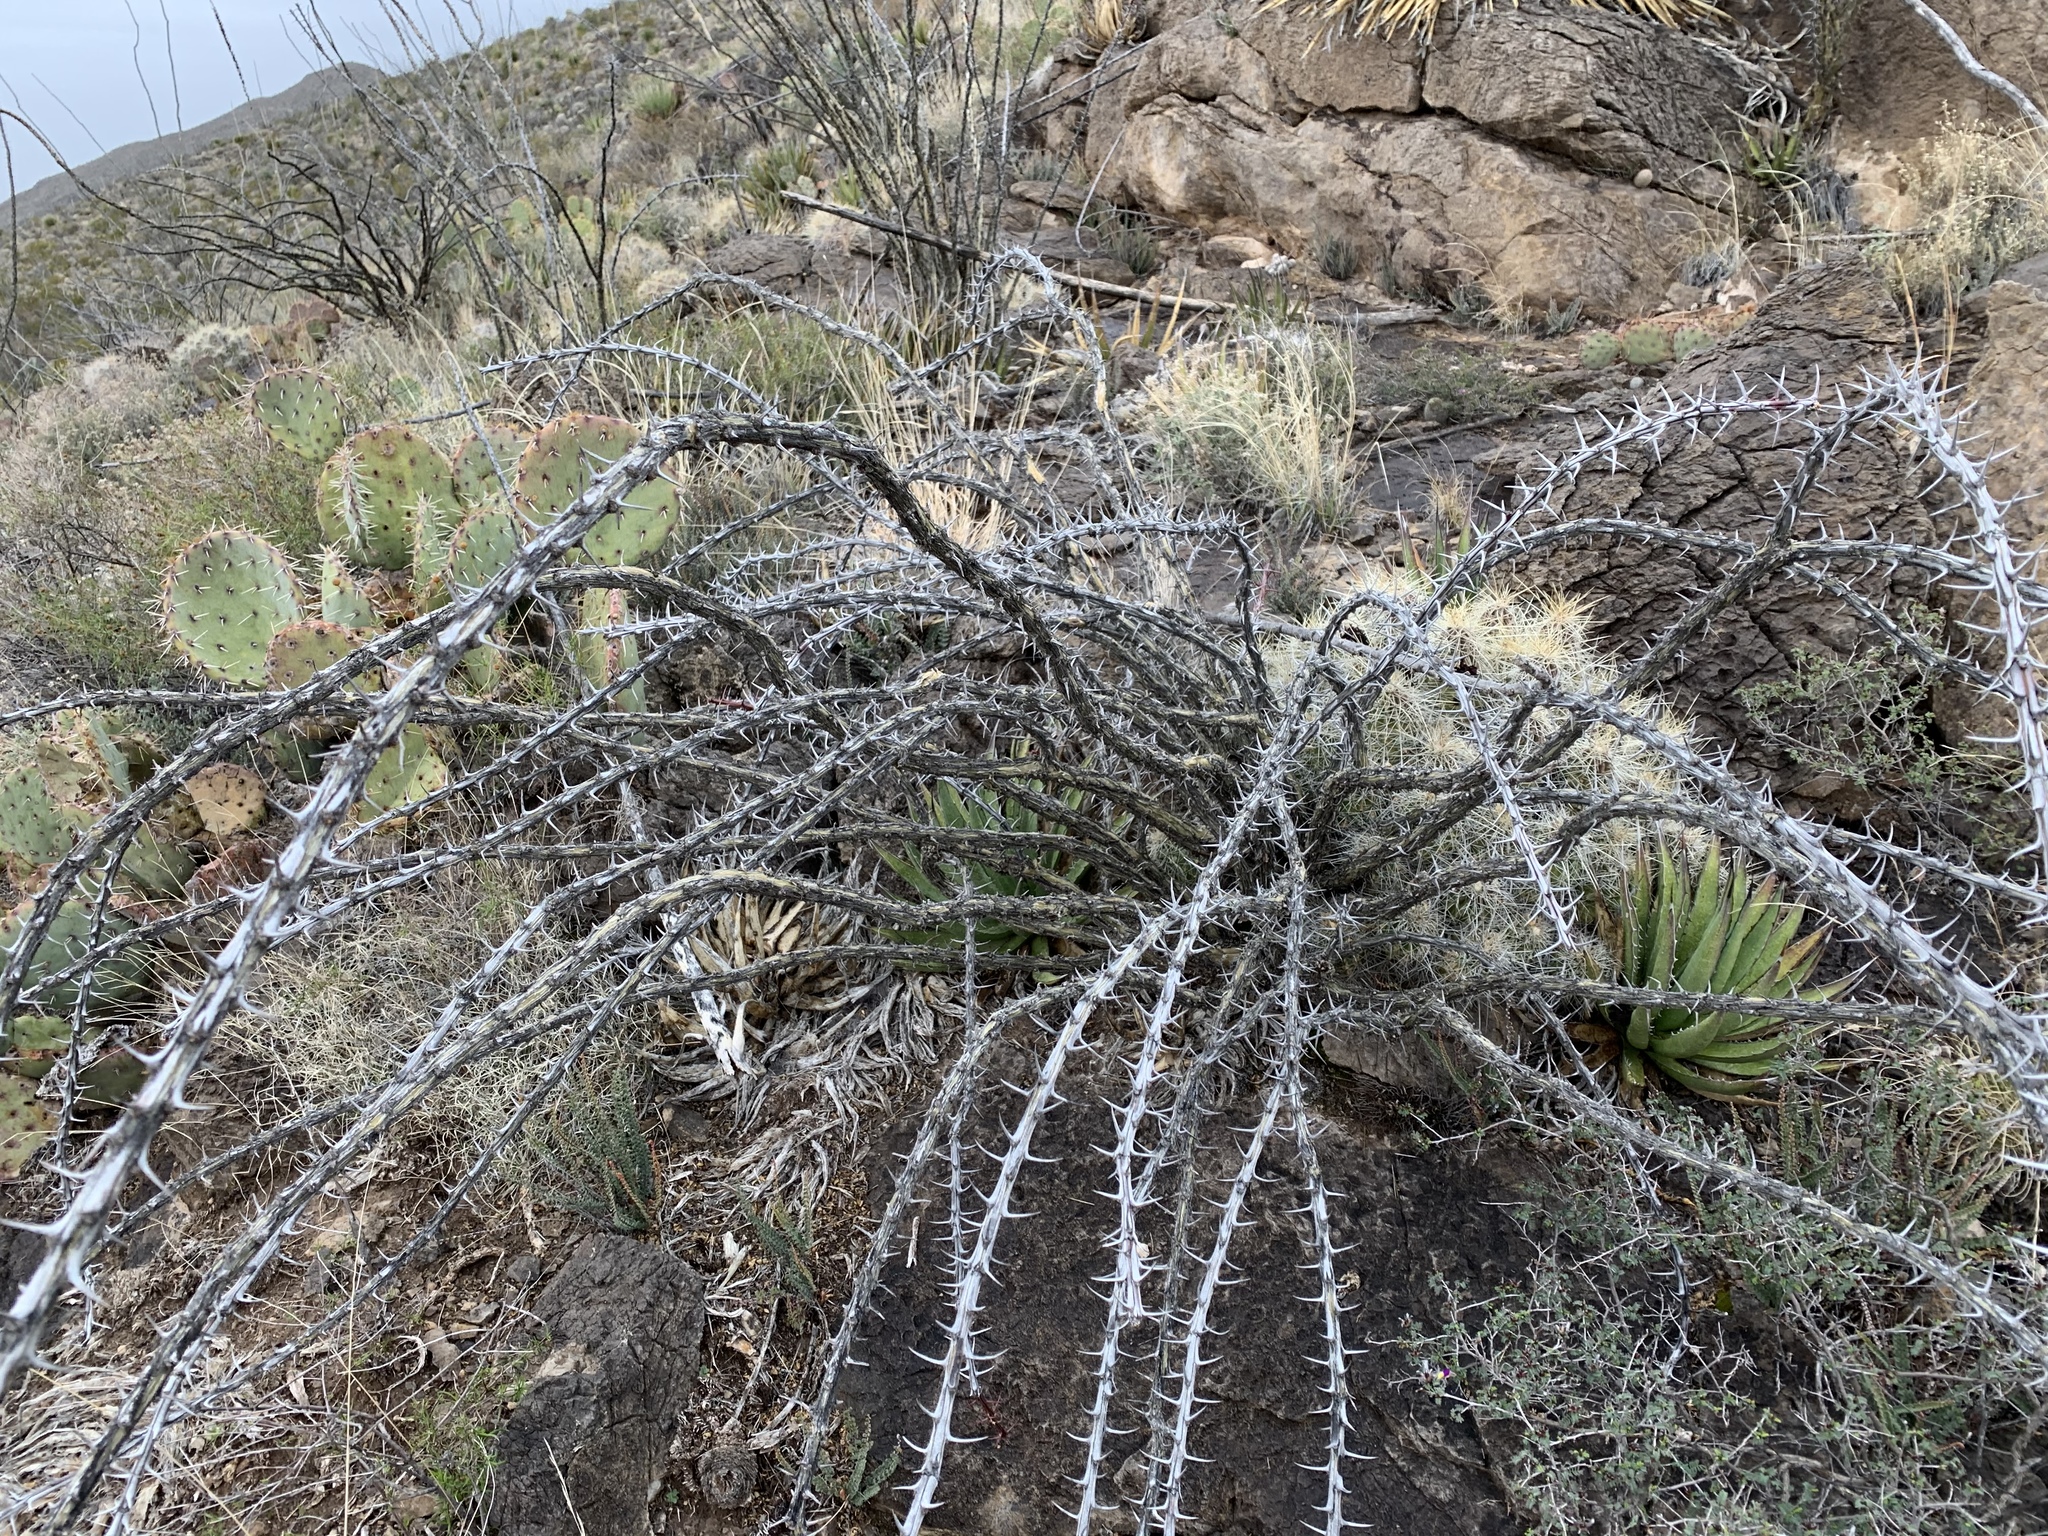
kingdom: Plantae
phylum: Tracheophyta
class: Magnoliopsida
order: Ericales
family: Fouquieriaceae
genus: Fouquieria
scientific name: Fouquieria splendens
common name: Vine-cactus
